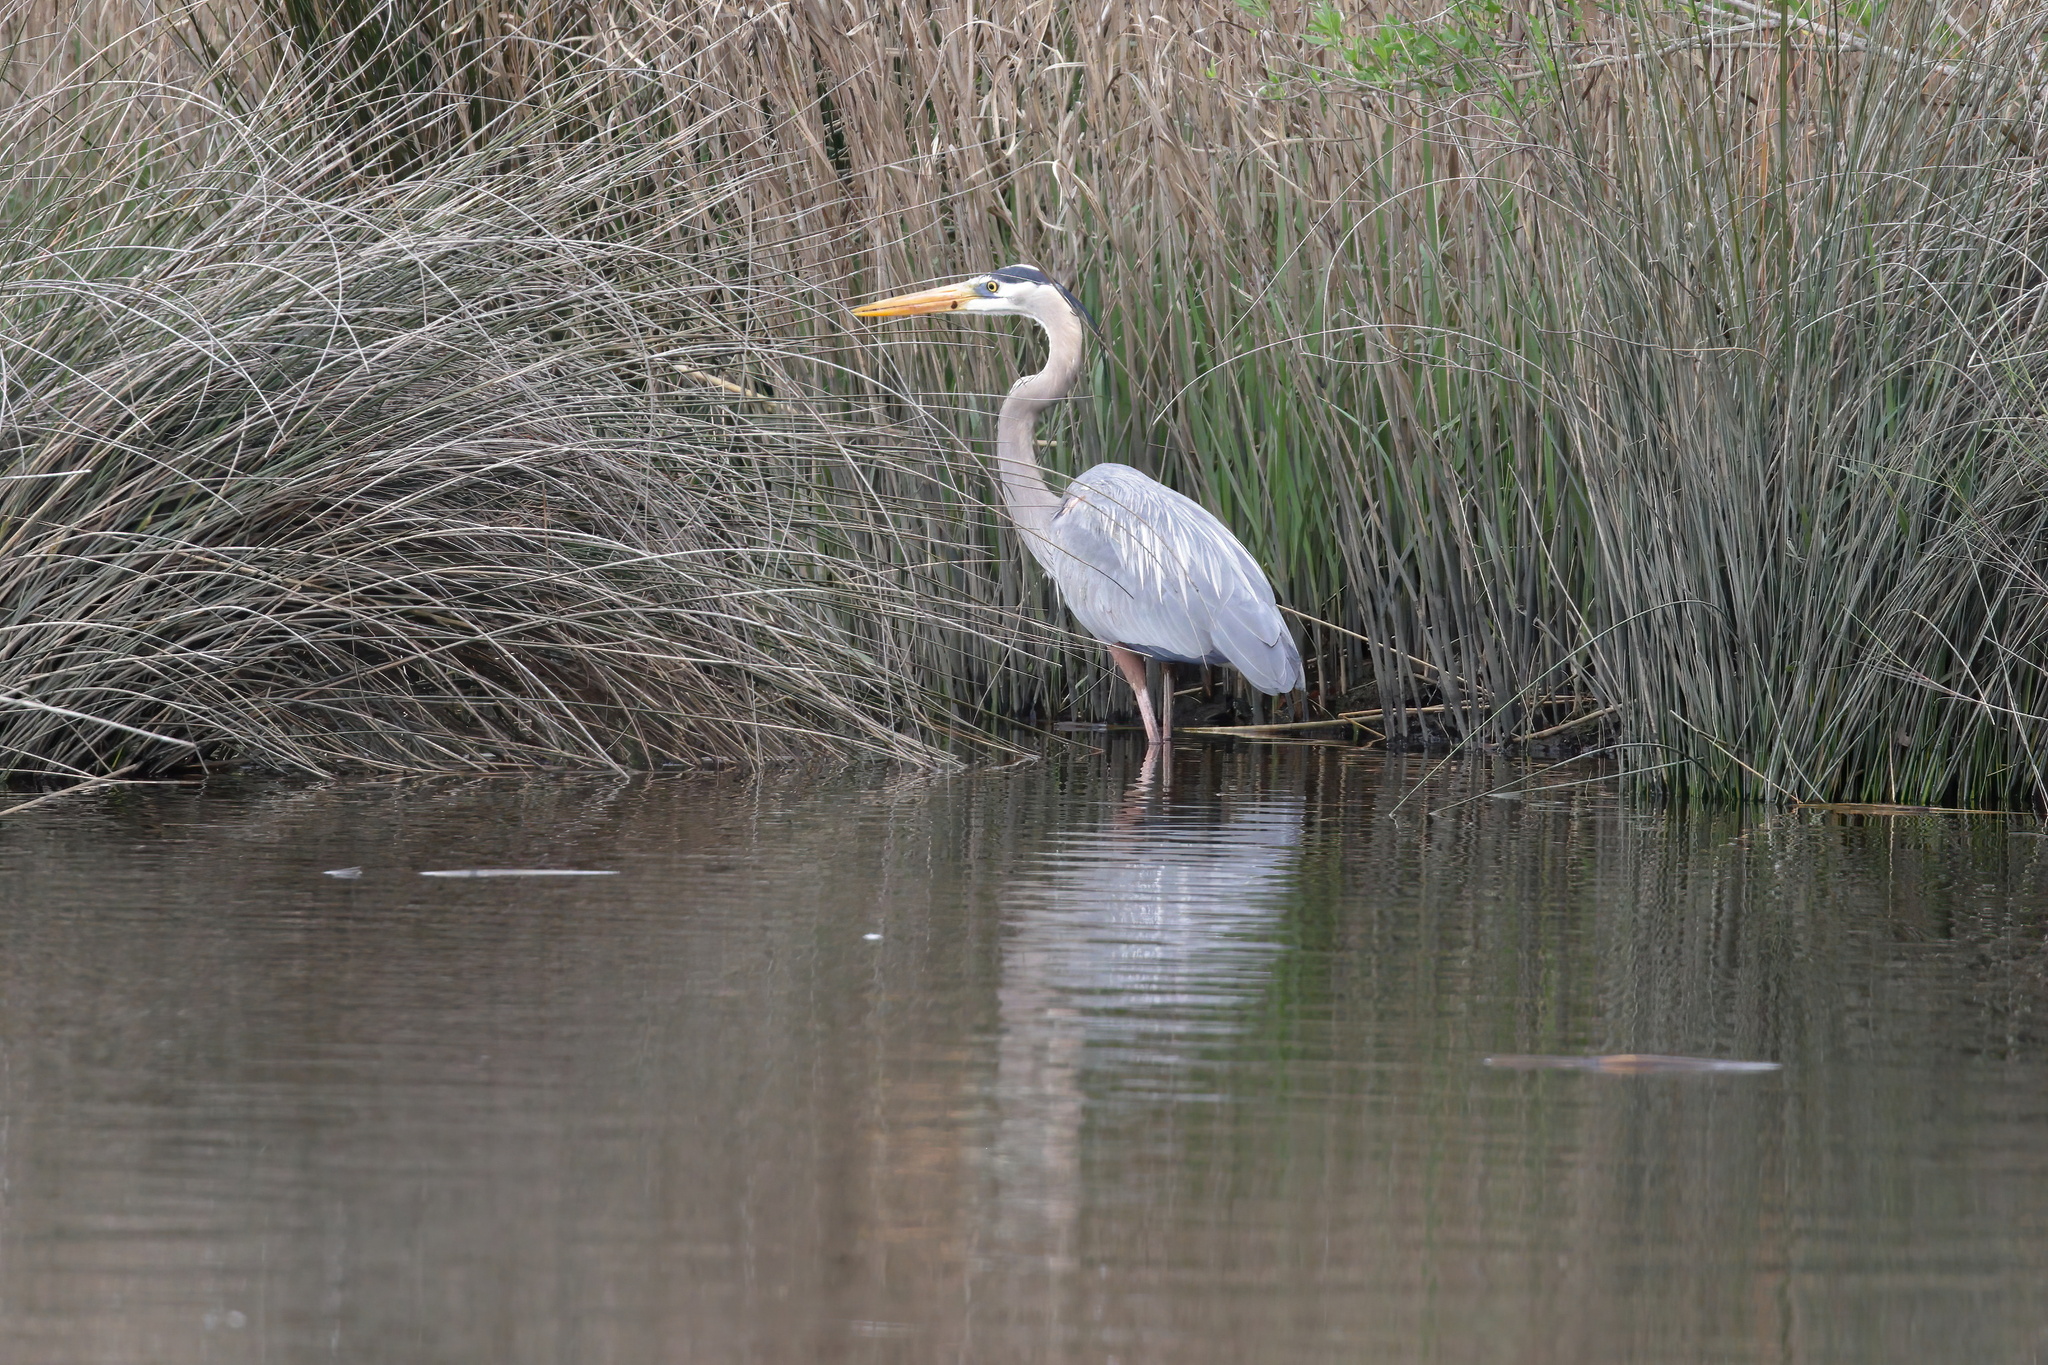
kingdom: Animalia
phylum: Chordata
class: Aves
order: Pelecaniformes
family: Ardeidae
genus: Ardea
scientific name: Ardea herodias
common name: Great blue heron
